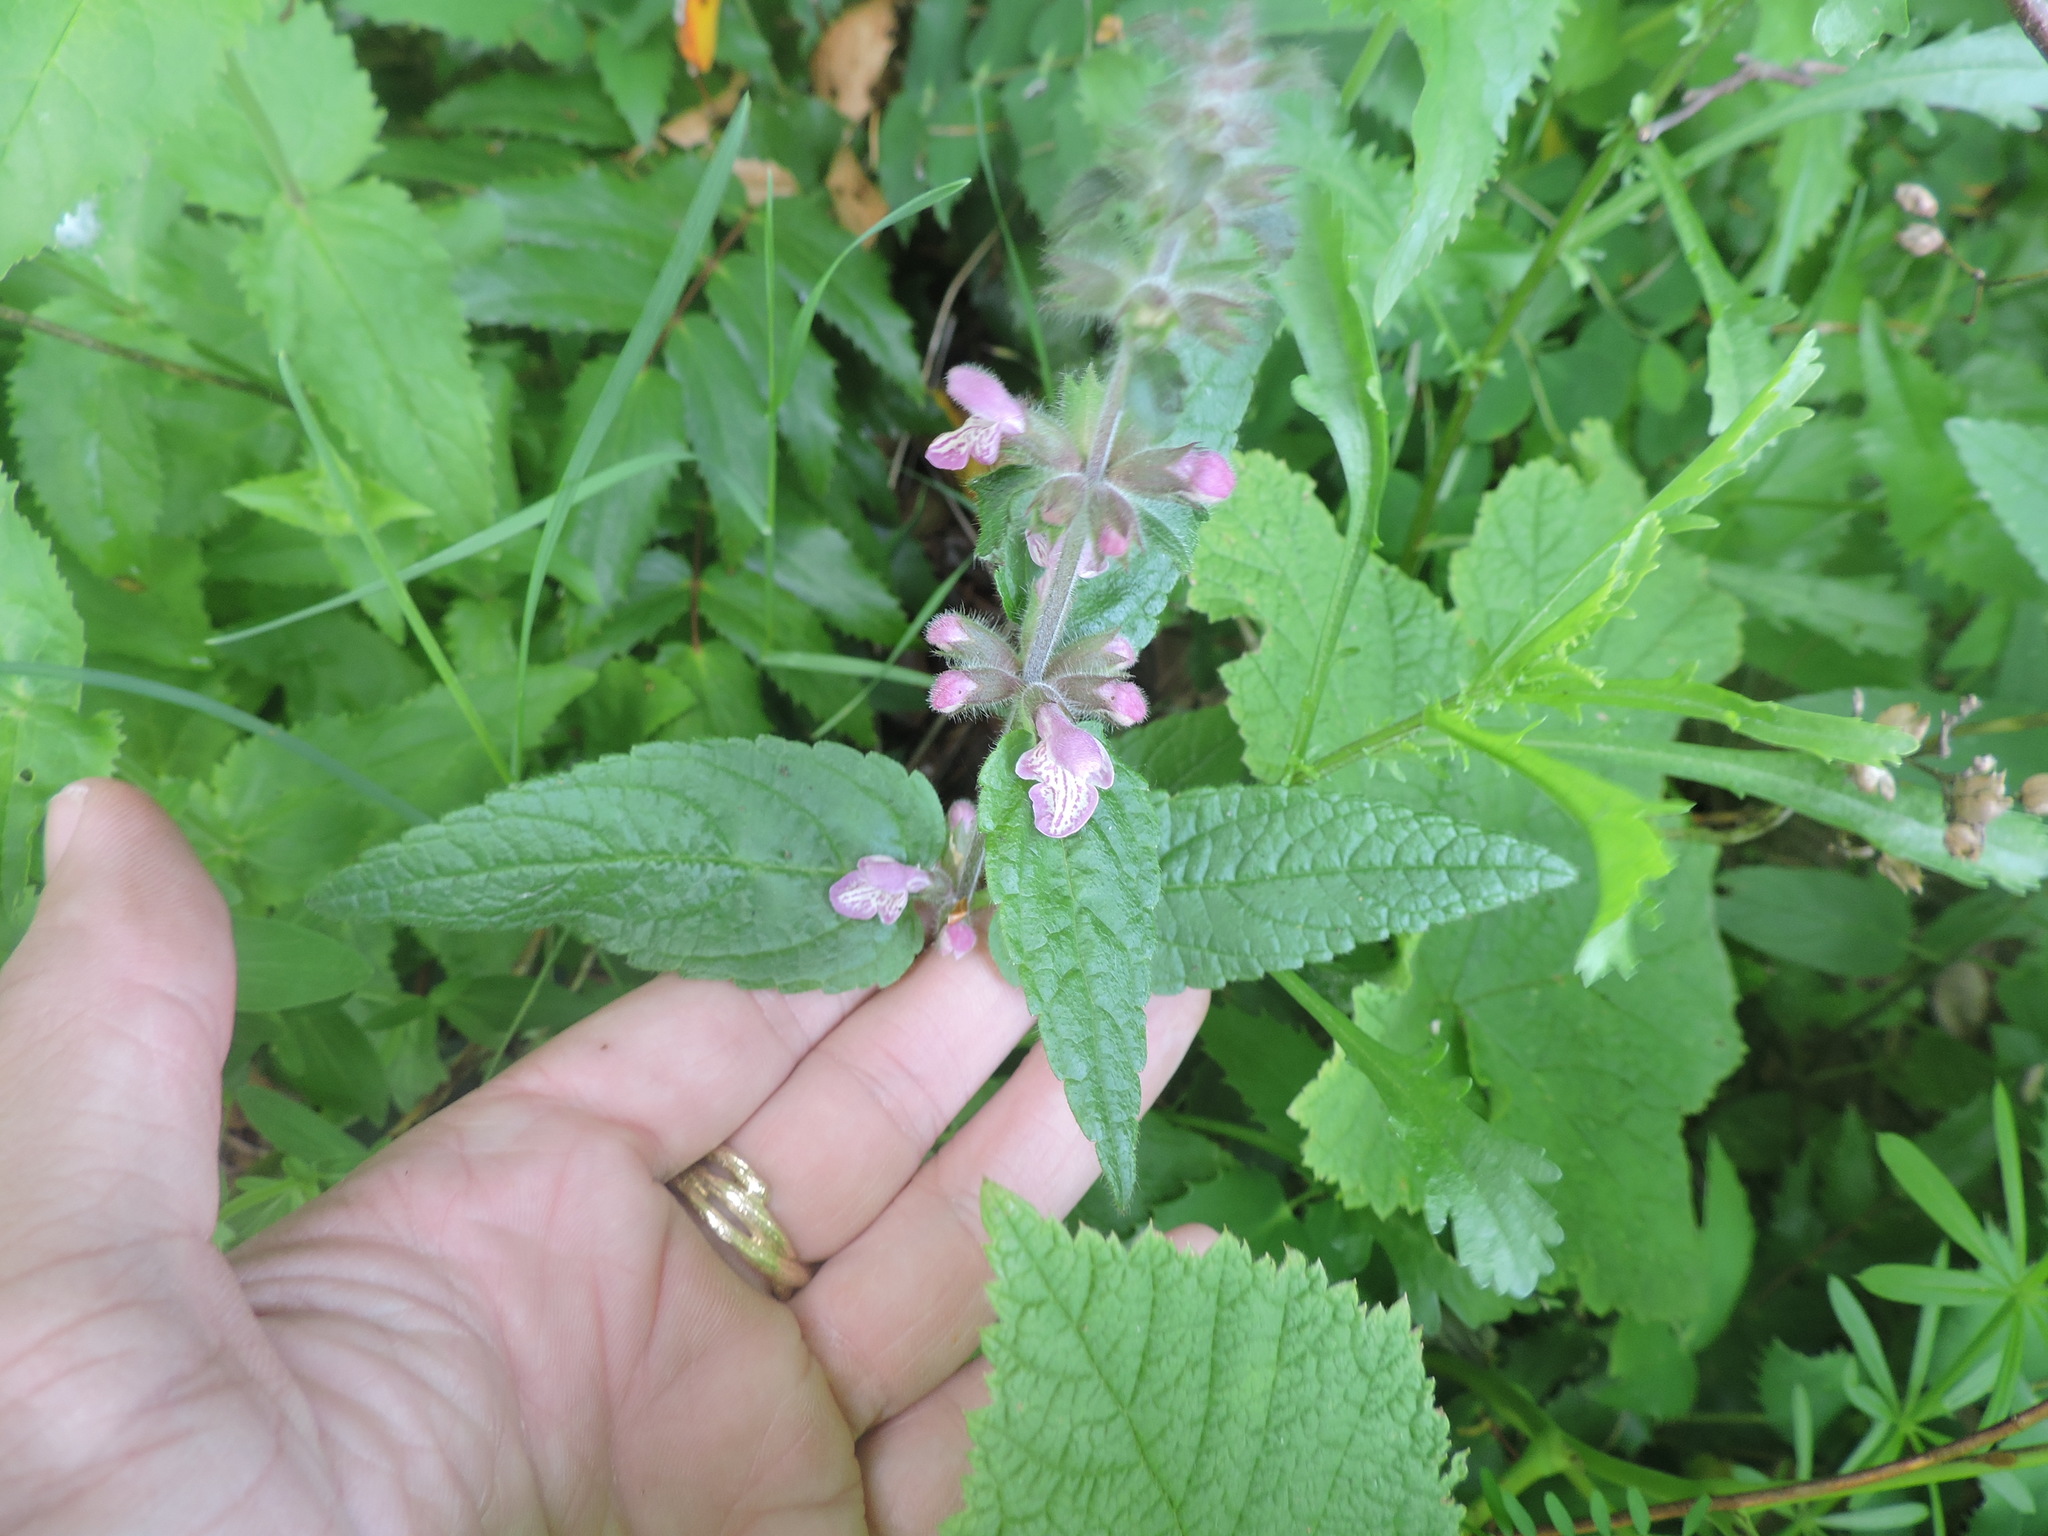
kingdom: Plantae
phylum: Tracheophyta
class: Magnoliopsida
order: Lamiales
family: Lamiaceae
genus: Stachys
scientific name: Stachys mexicana
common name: Mexican hedge-nettle
